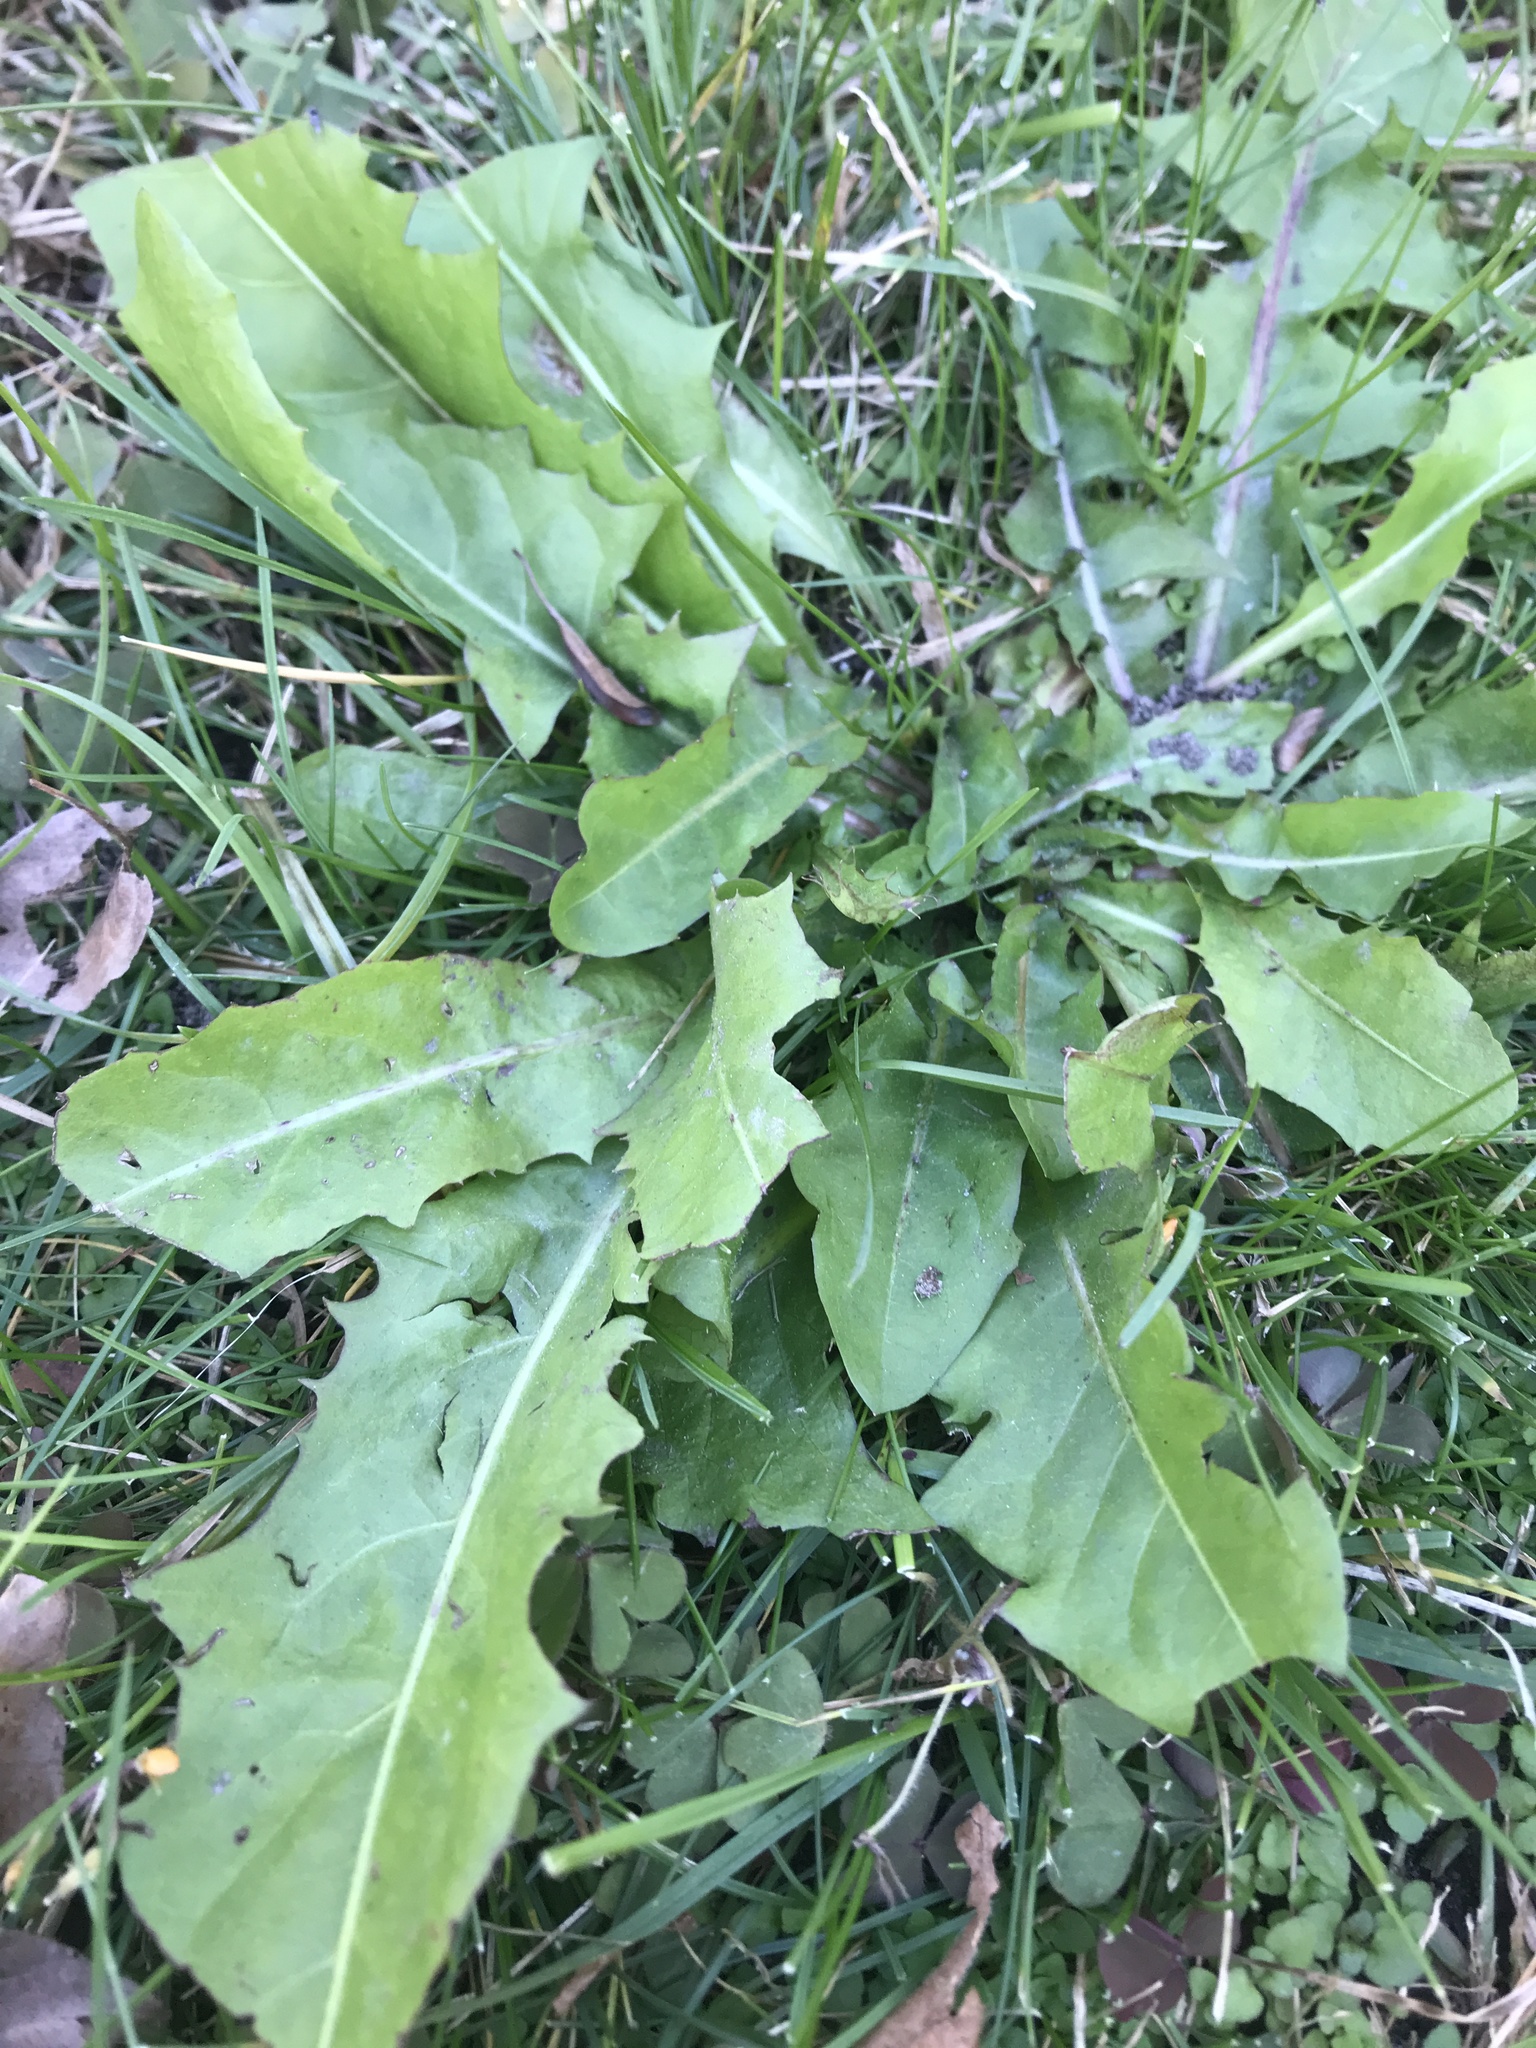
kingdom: Plantae
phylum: Tracheophyta
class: Magnoliopsida
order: Asterales
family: Asteraceae
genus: Taraxacum
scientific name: Taraxacum officinale
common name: Common dandelion
